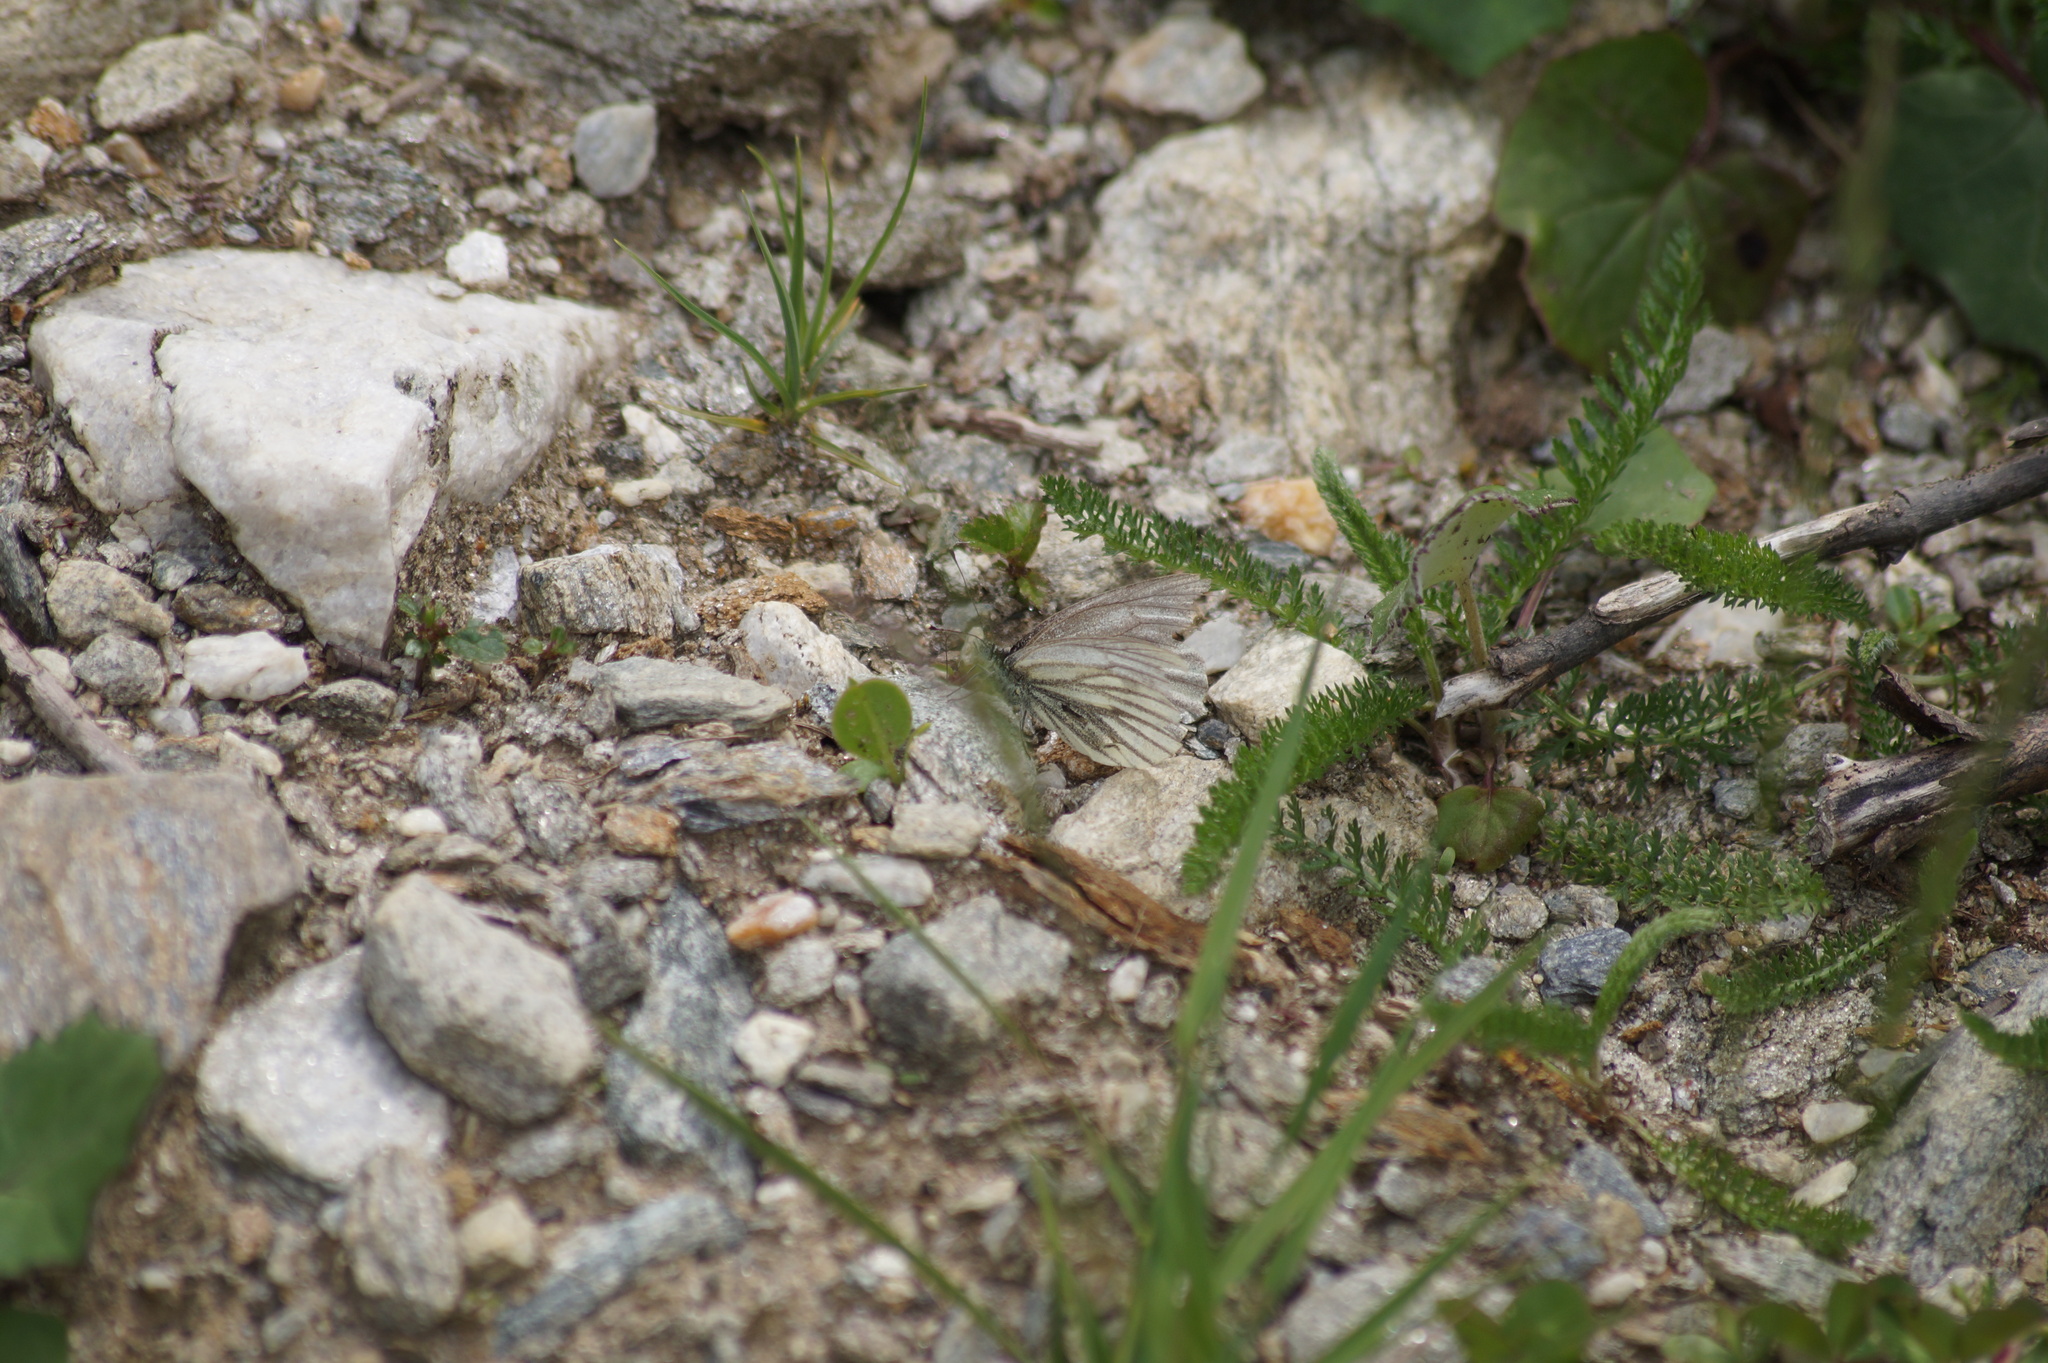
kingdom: Animalia
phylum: Arthropoda
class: Insecta
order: Lepidoptera
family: Pieridae
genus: Pieris
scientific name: Pieris bryoniae
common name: Mountain green-veined white
